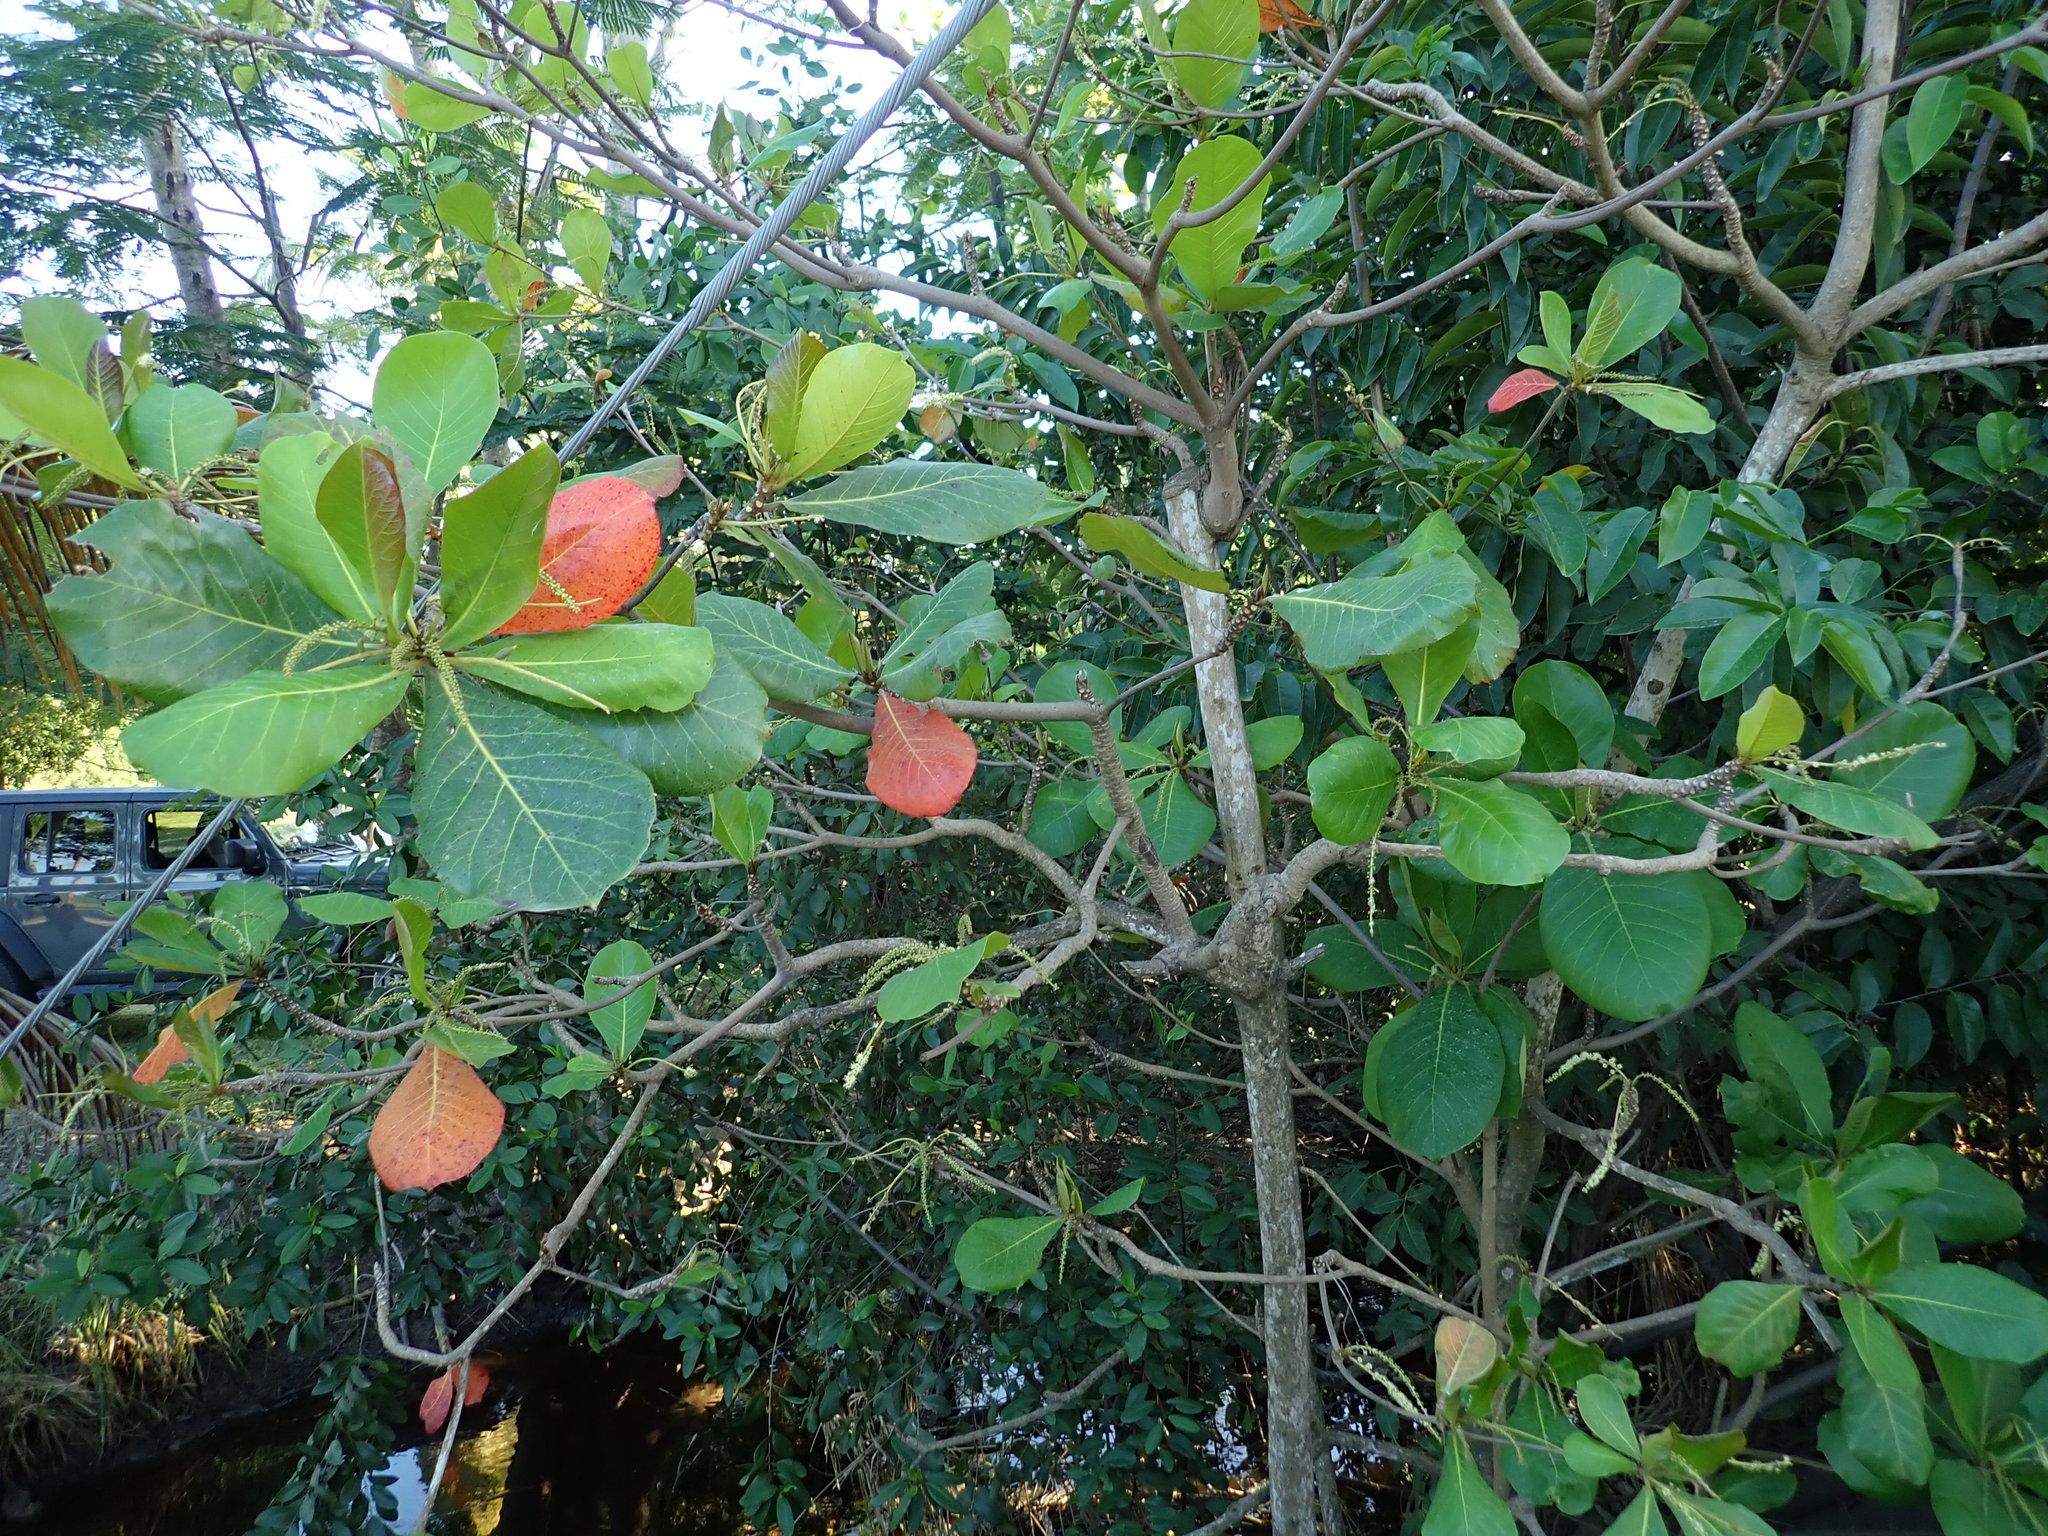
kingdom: Plantae
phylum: Tracheophyta
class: Magnoliopsida
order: Myrtales
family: Combretaceae
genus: Terminalia
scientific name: Terminalia catappa
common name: Tropical almond
